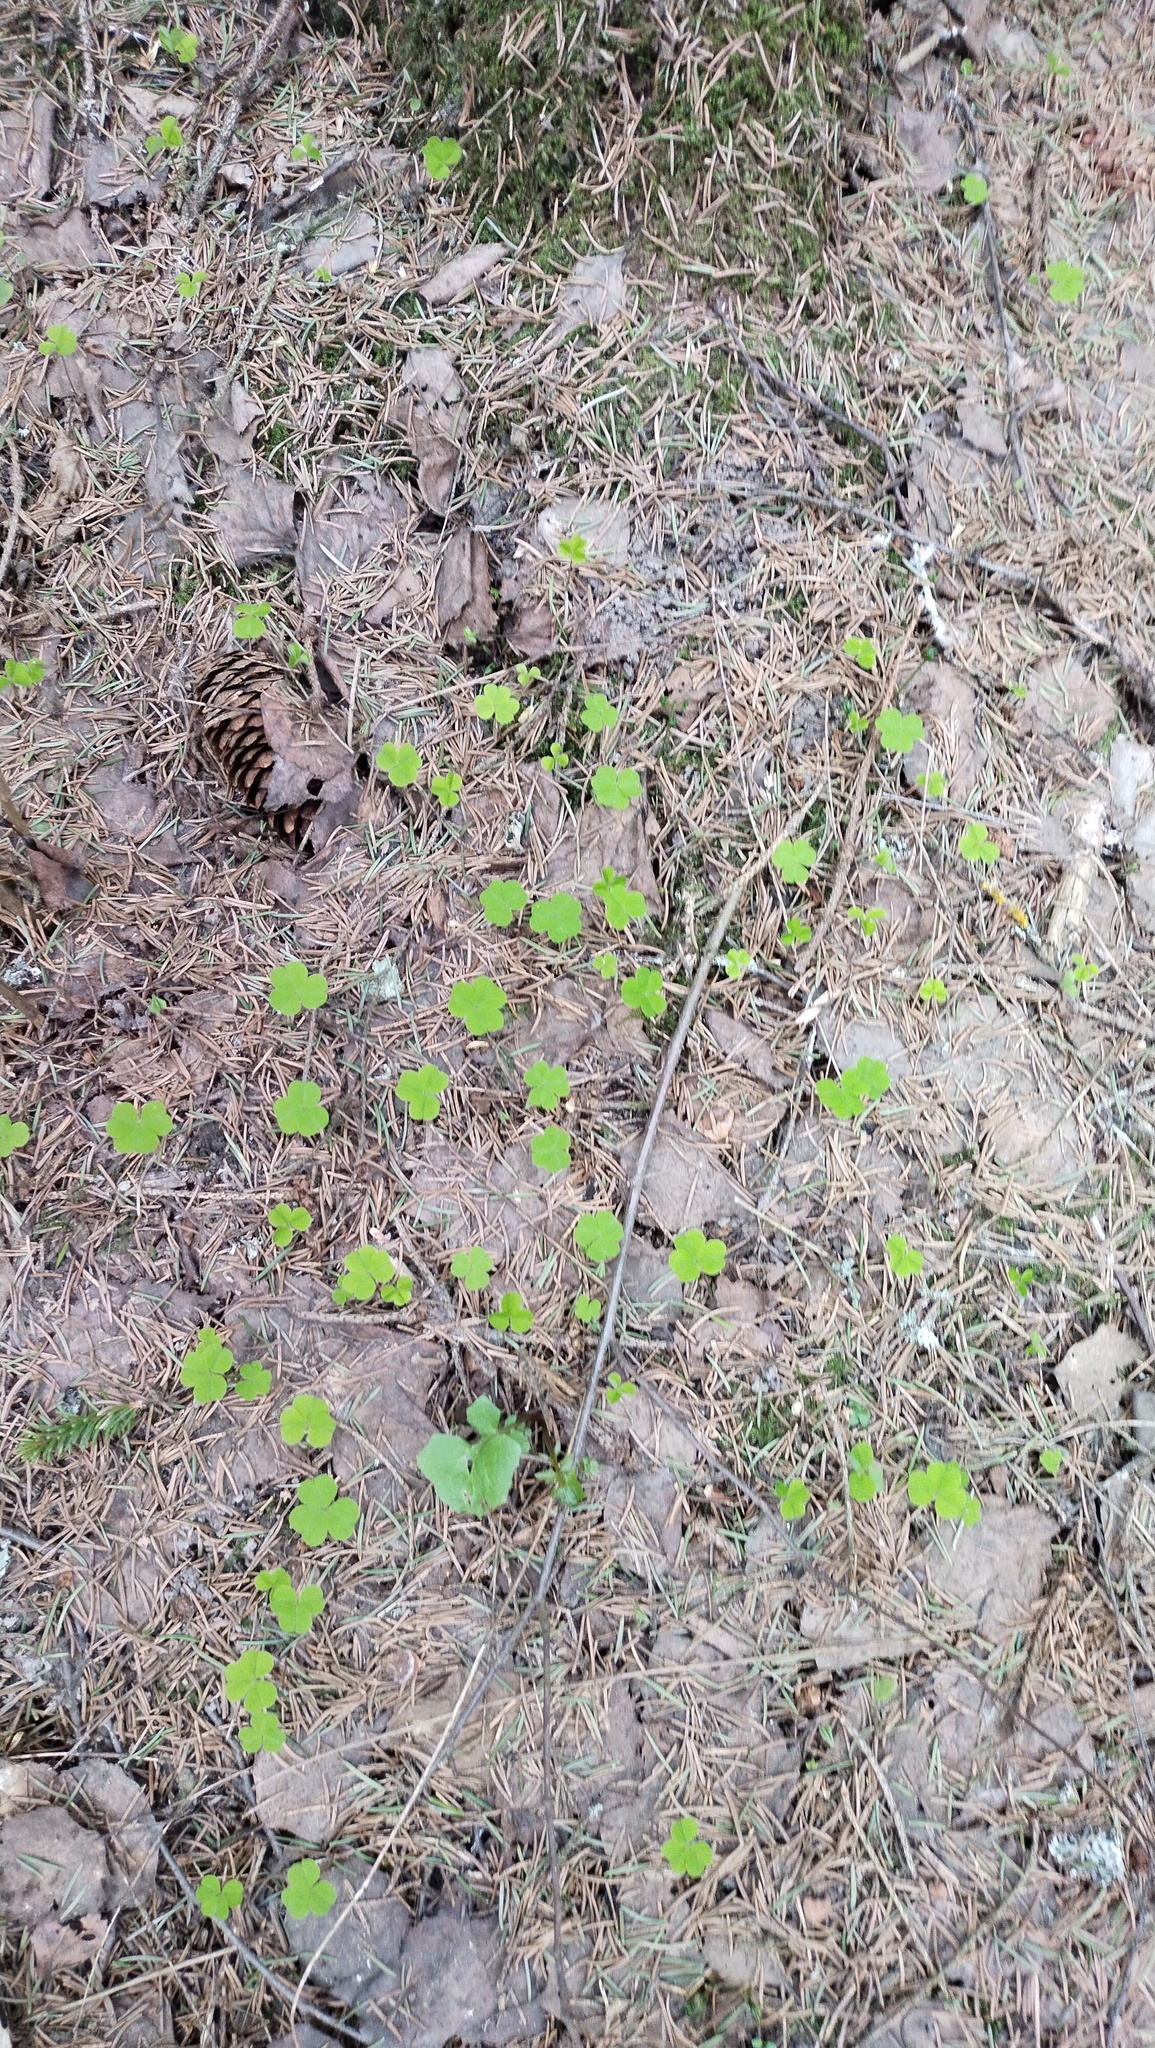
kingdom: Plantae
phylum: Tracheophyta
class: Magnoliopsida
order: Oxalidales
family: Oxalidaceae
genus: Oxalis
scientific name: Oxalis acetosella
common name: Wood-sorrel
